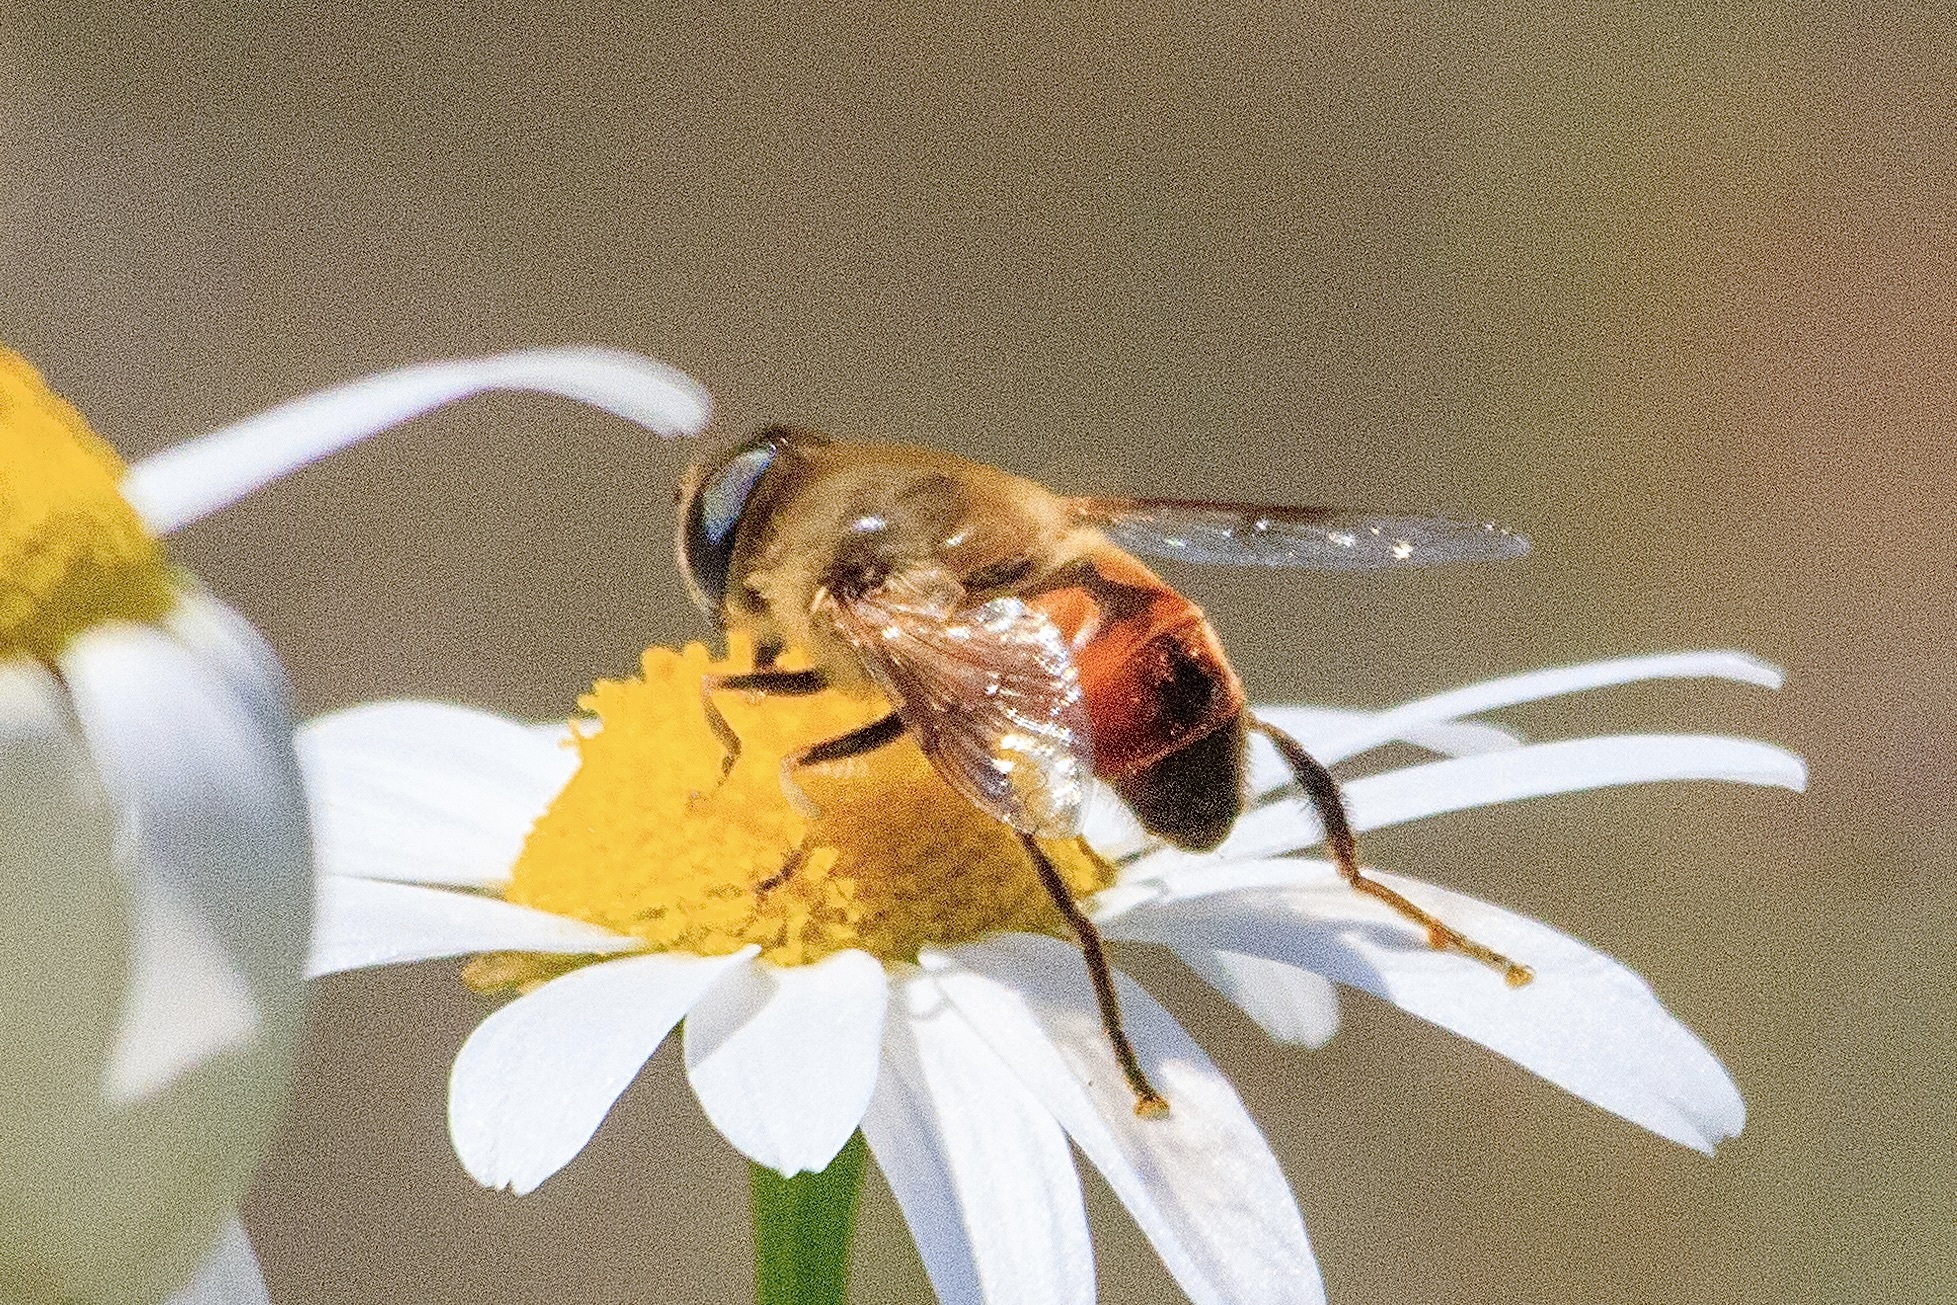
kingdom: Animalia
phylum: Arthropoda
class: Insecta
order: Diptera
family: Syrphidae
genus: Eristalis
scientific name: Eristalis tenax
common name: Drone fly
